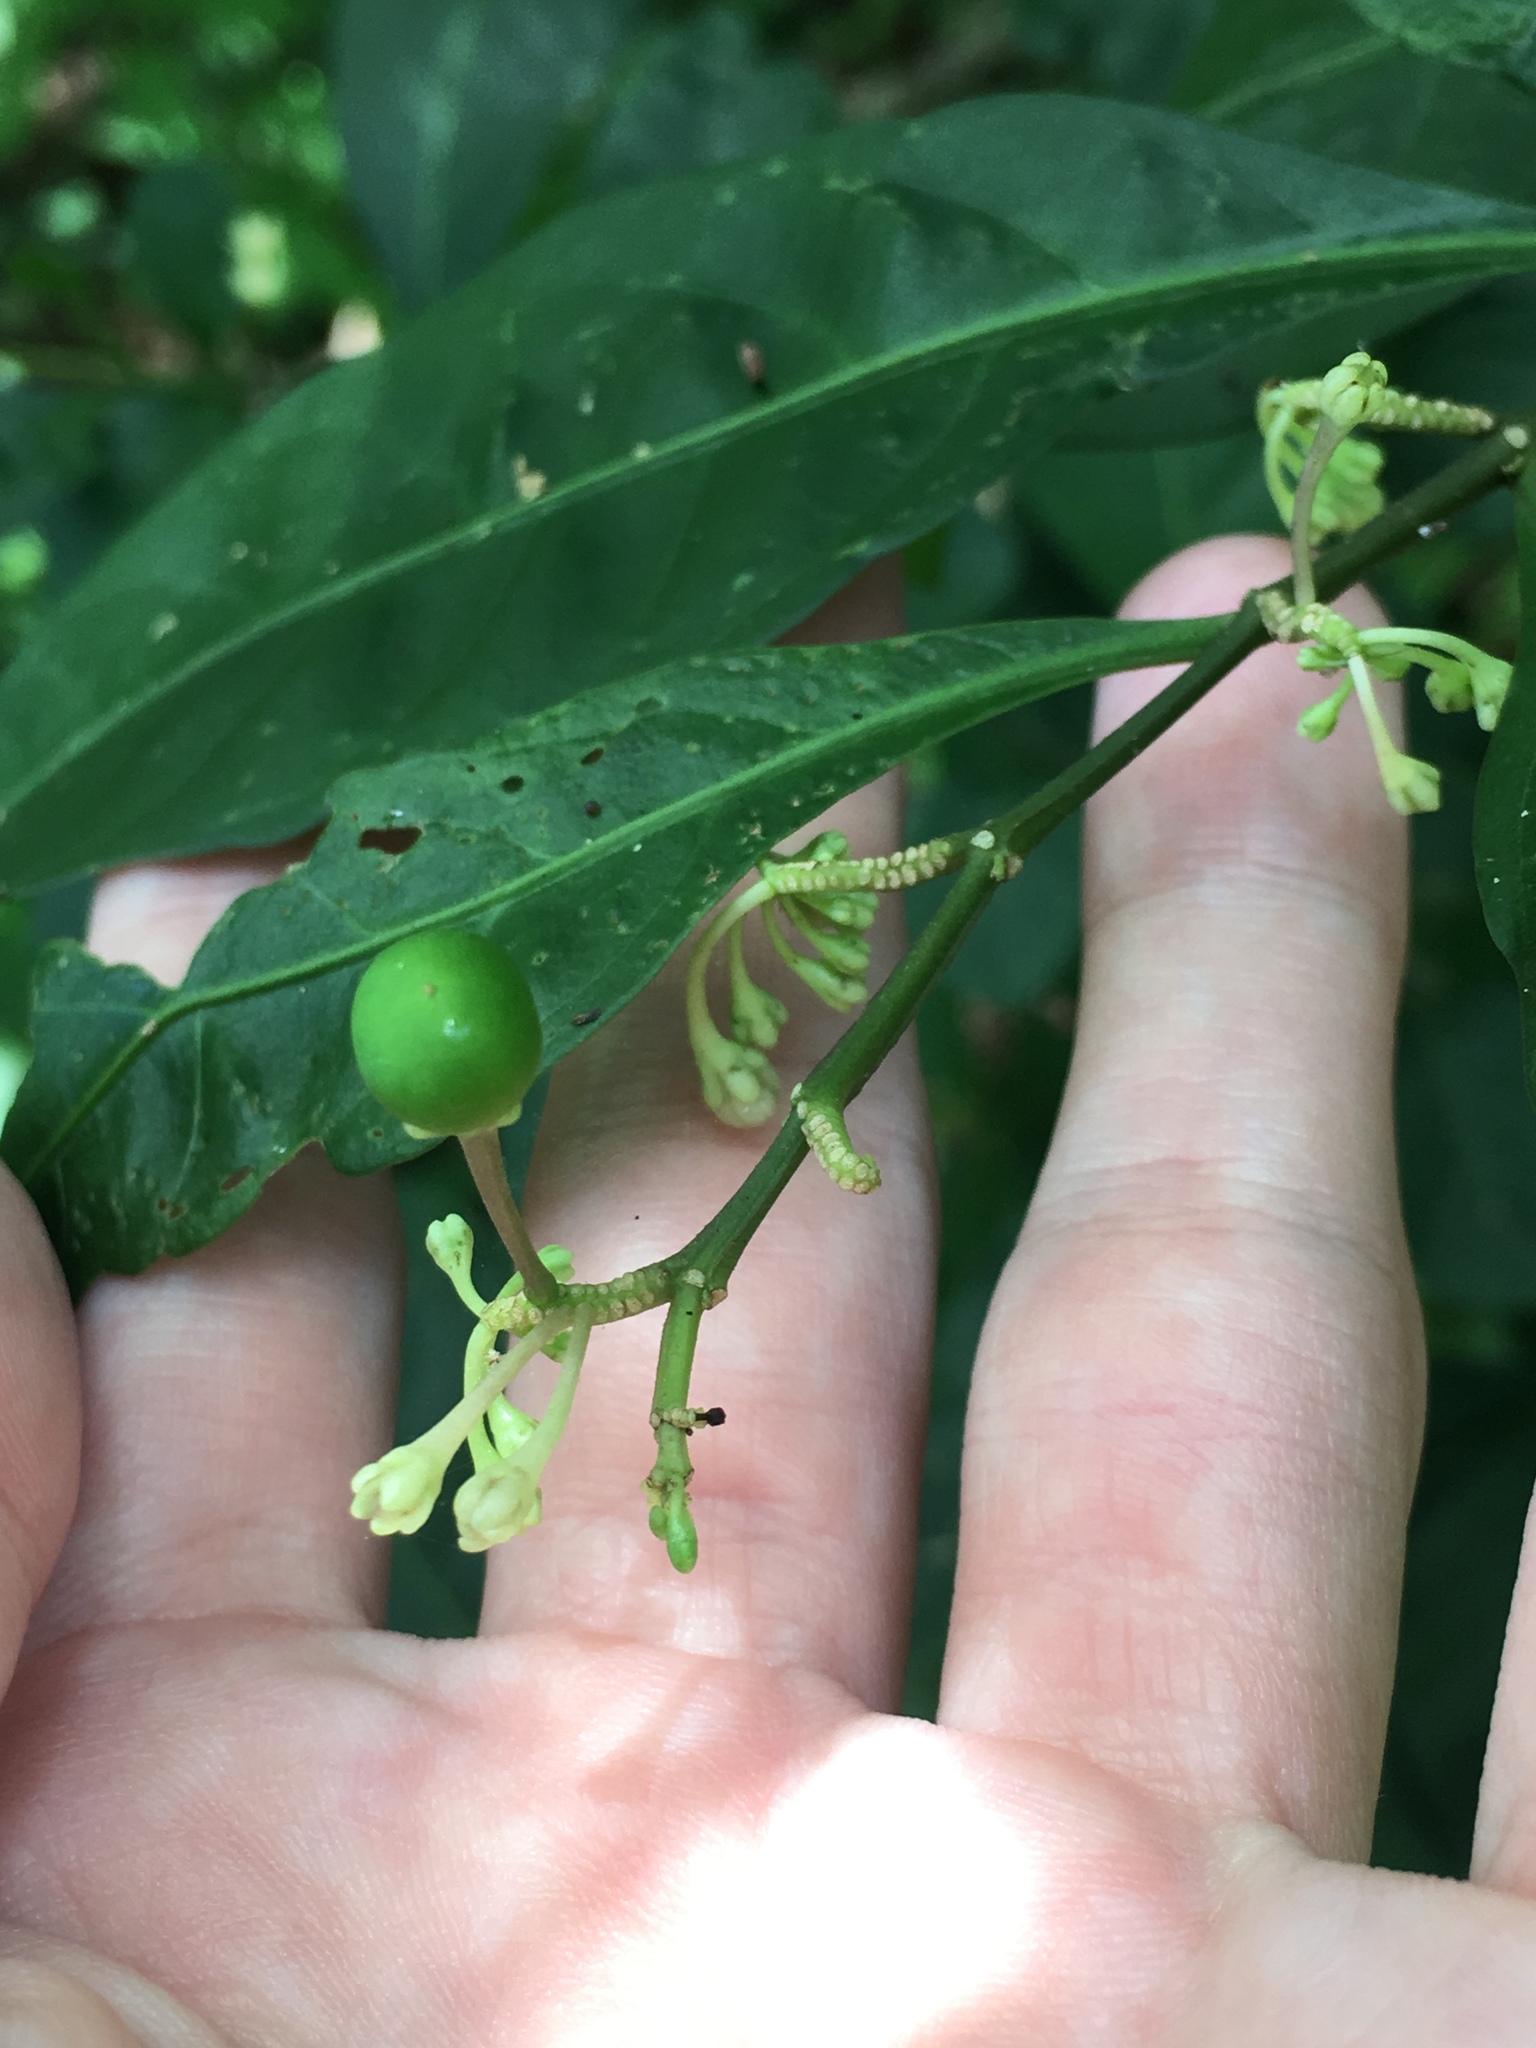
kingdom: Plantae
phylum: Tracheophyta
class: Magnoliopsida
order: Solanales
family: Solanaceae
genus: Solanum
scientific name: Solanum diphyllum
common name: Twoleaf nightshade
